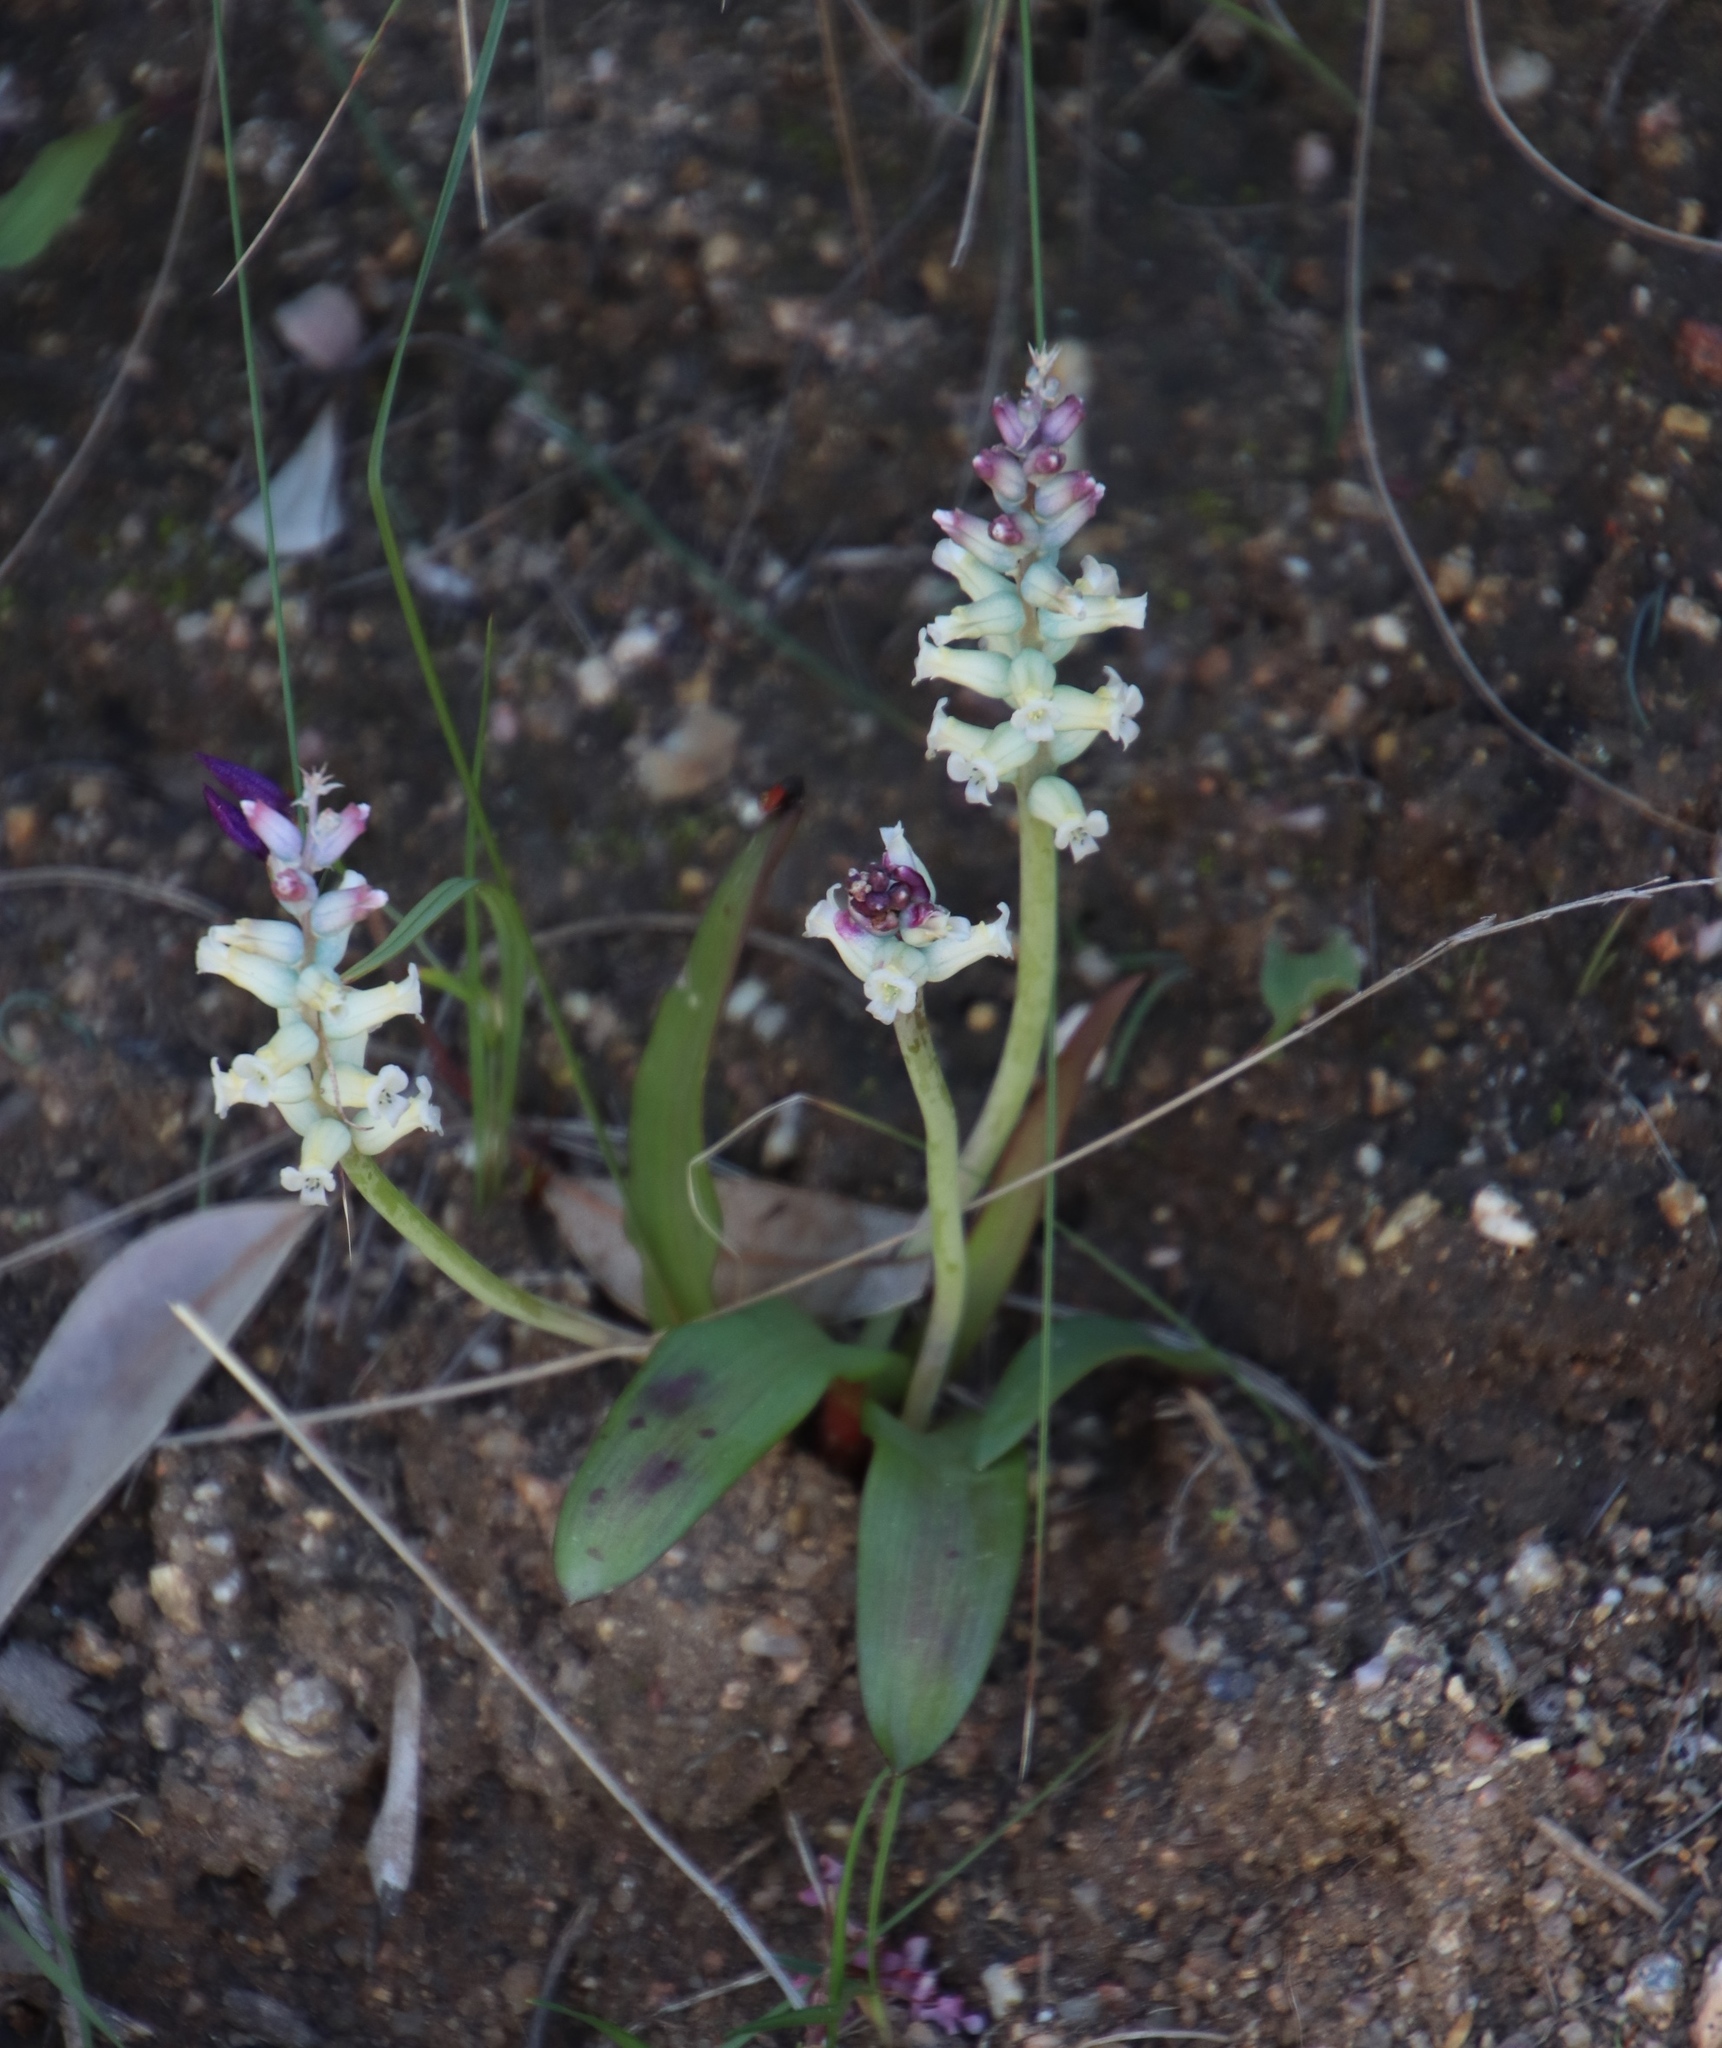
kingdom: Plantae
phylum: Tracheophyta
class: Liliopsida
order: Asparagales
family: Asparagaceae
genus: Lachenalia
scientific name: Lachenalia fistulosa
